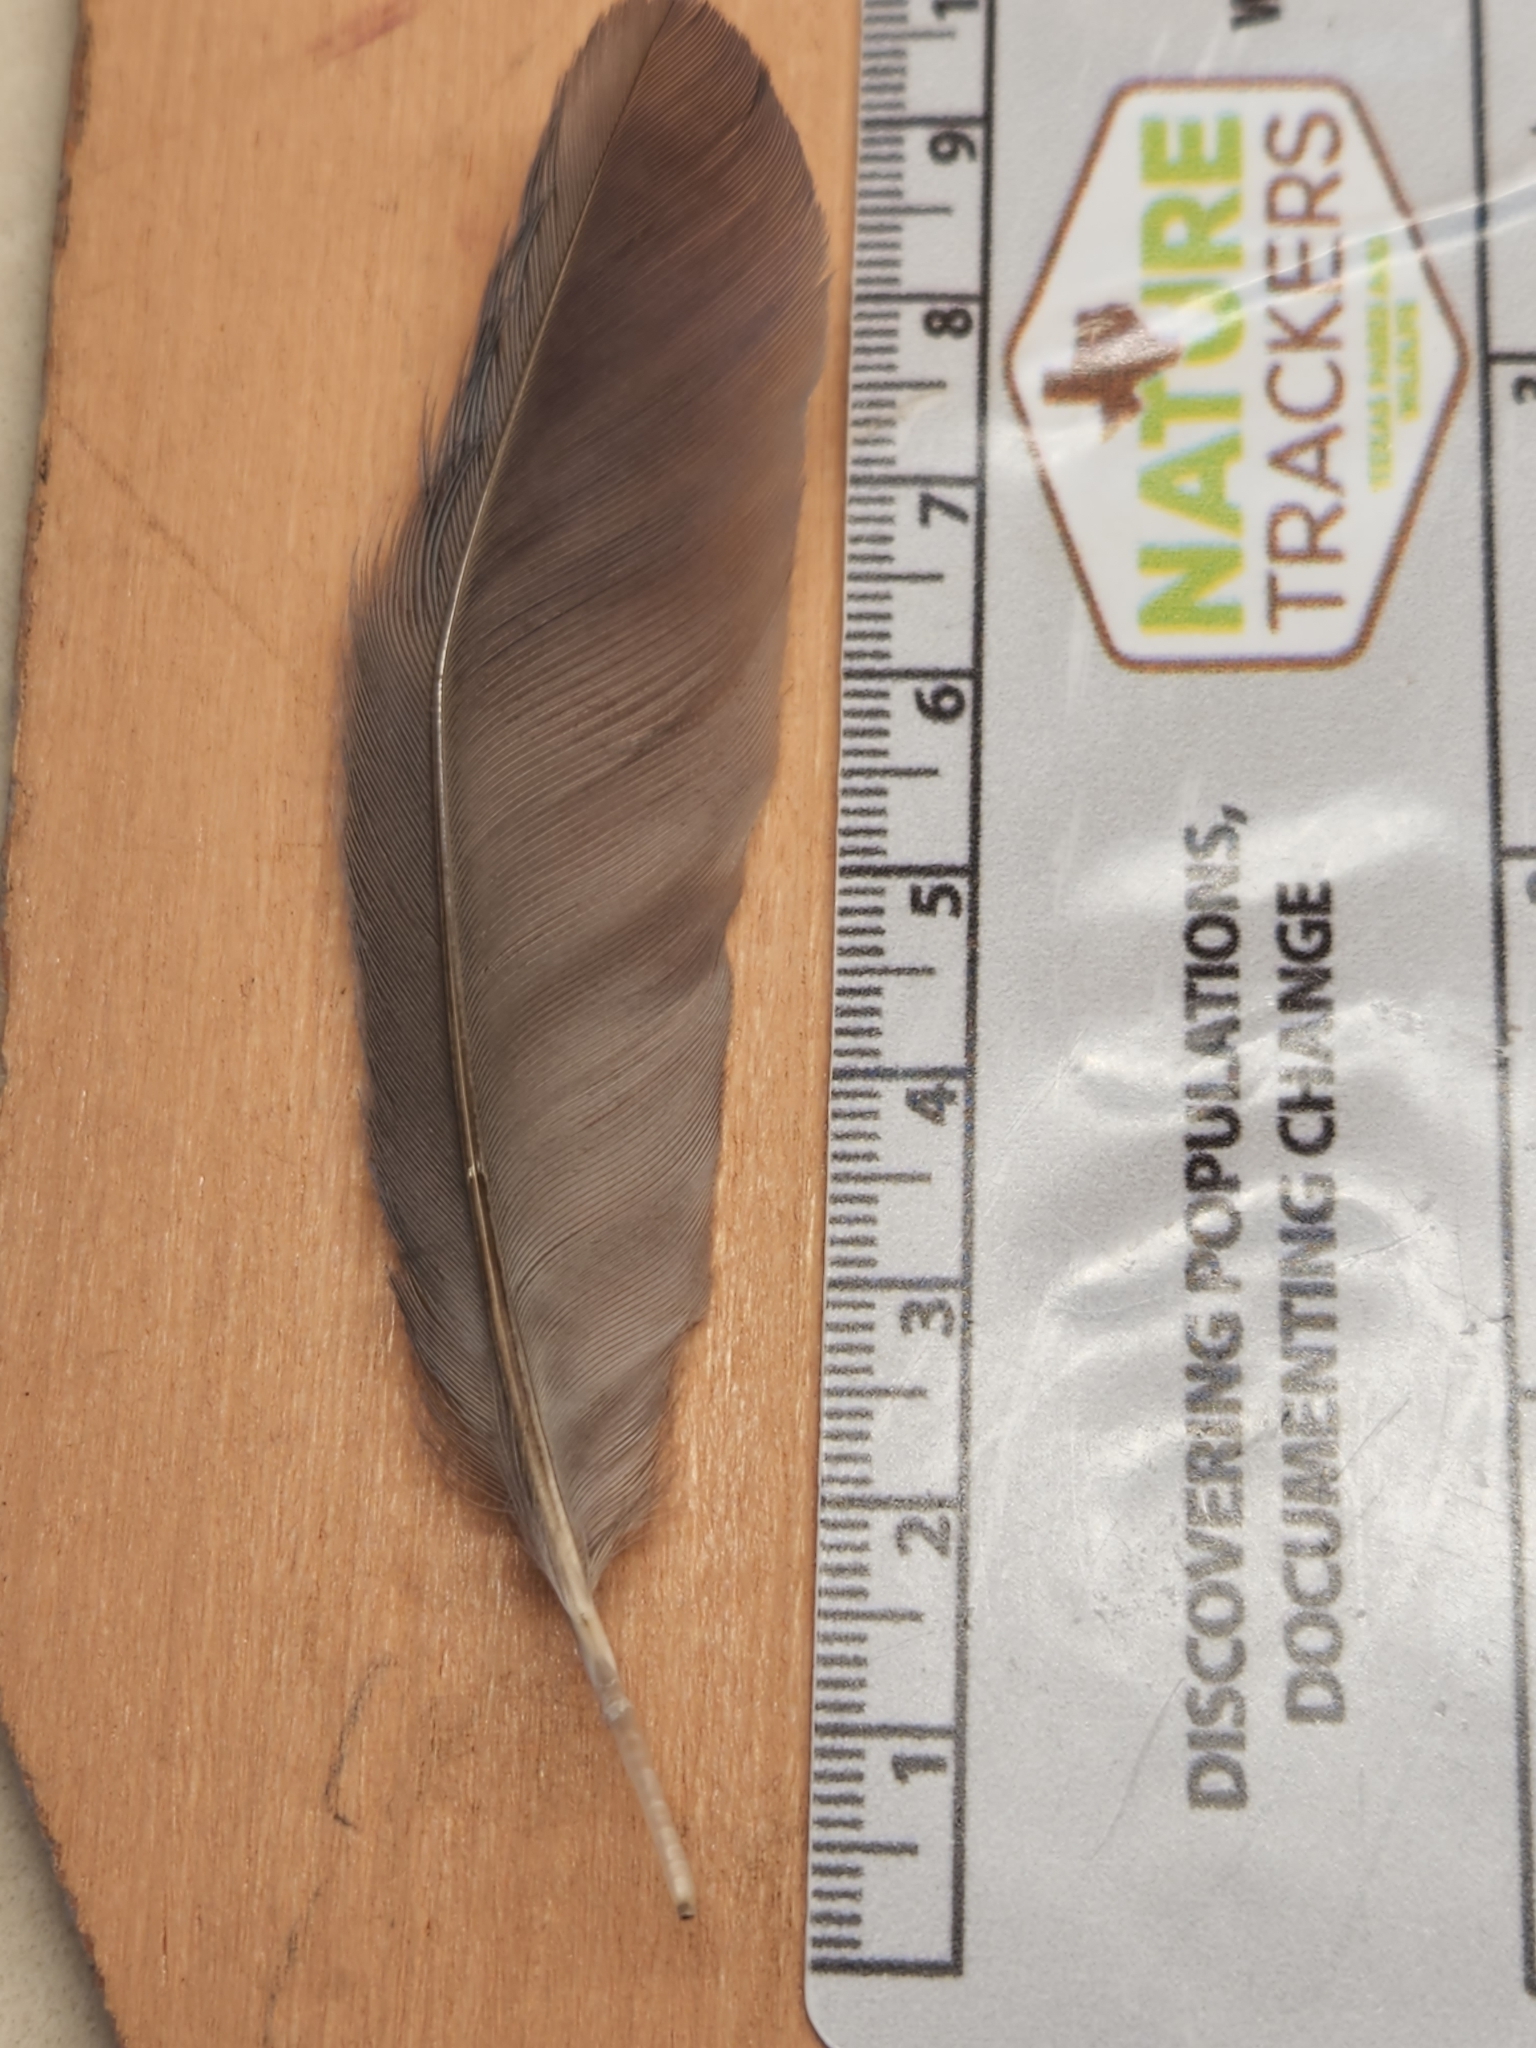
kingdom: Animalia
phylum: Chordata
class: Aves
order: Passeriformes
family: Corvidae
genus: Aphelocoma
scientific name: Aphelocoma woodhouseii
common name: Woodhouse's scrub-jay
